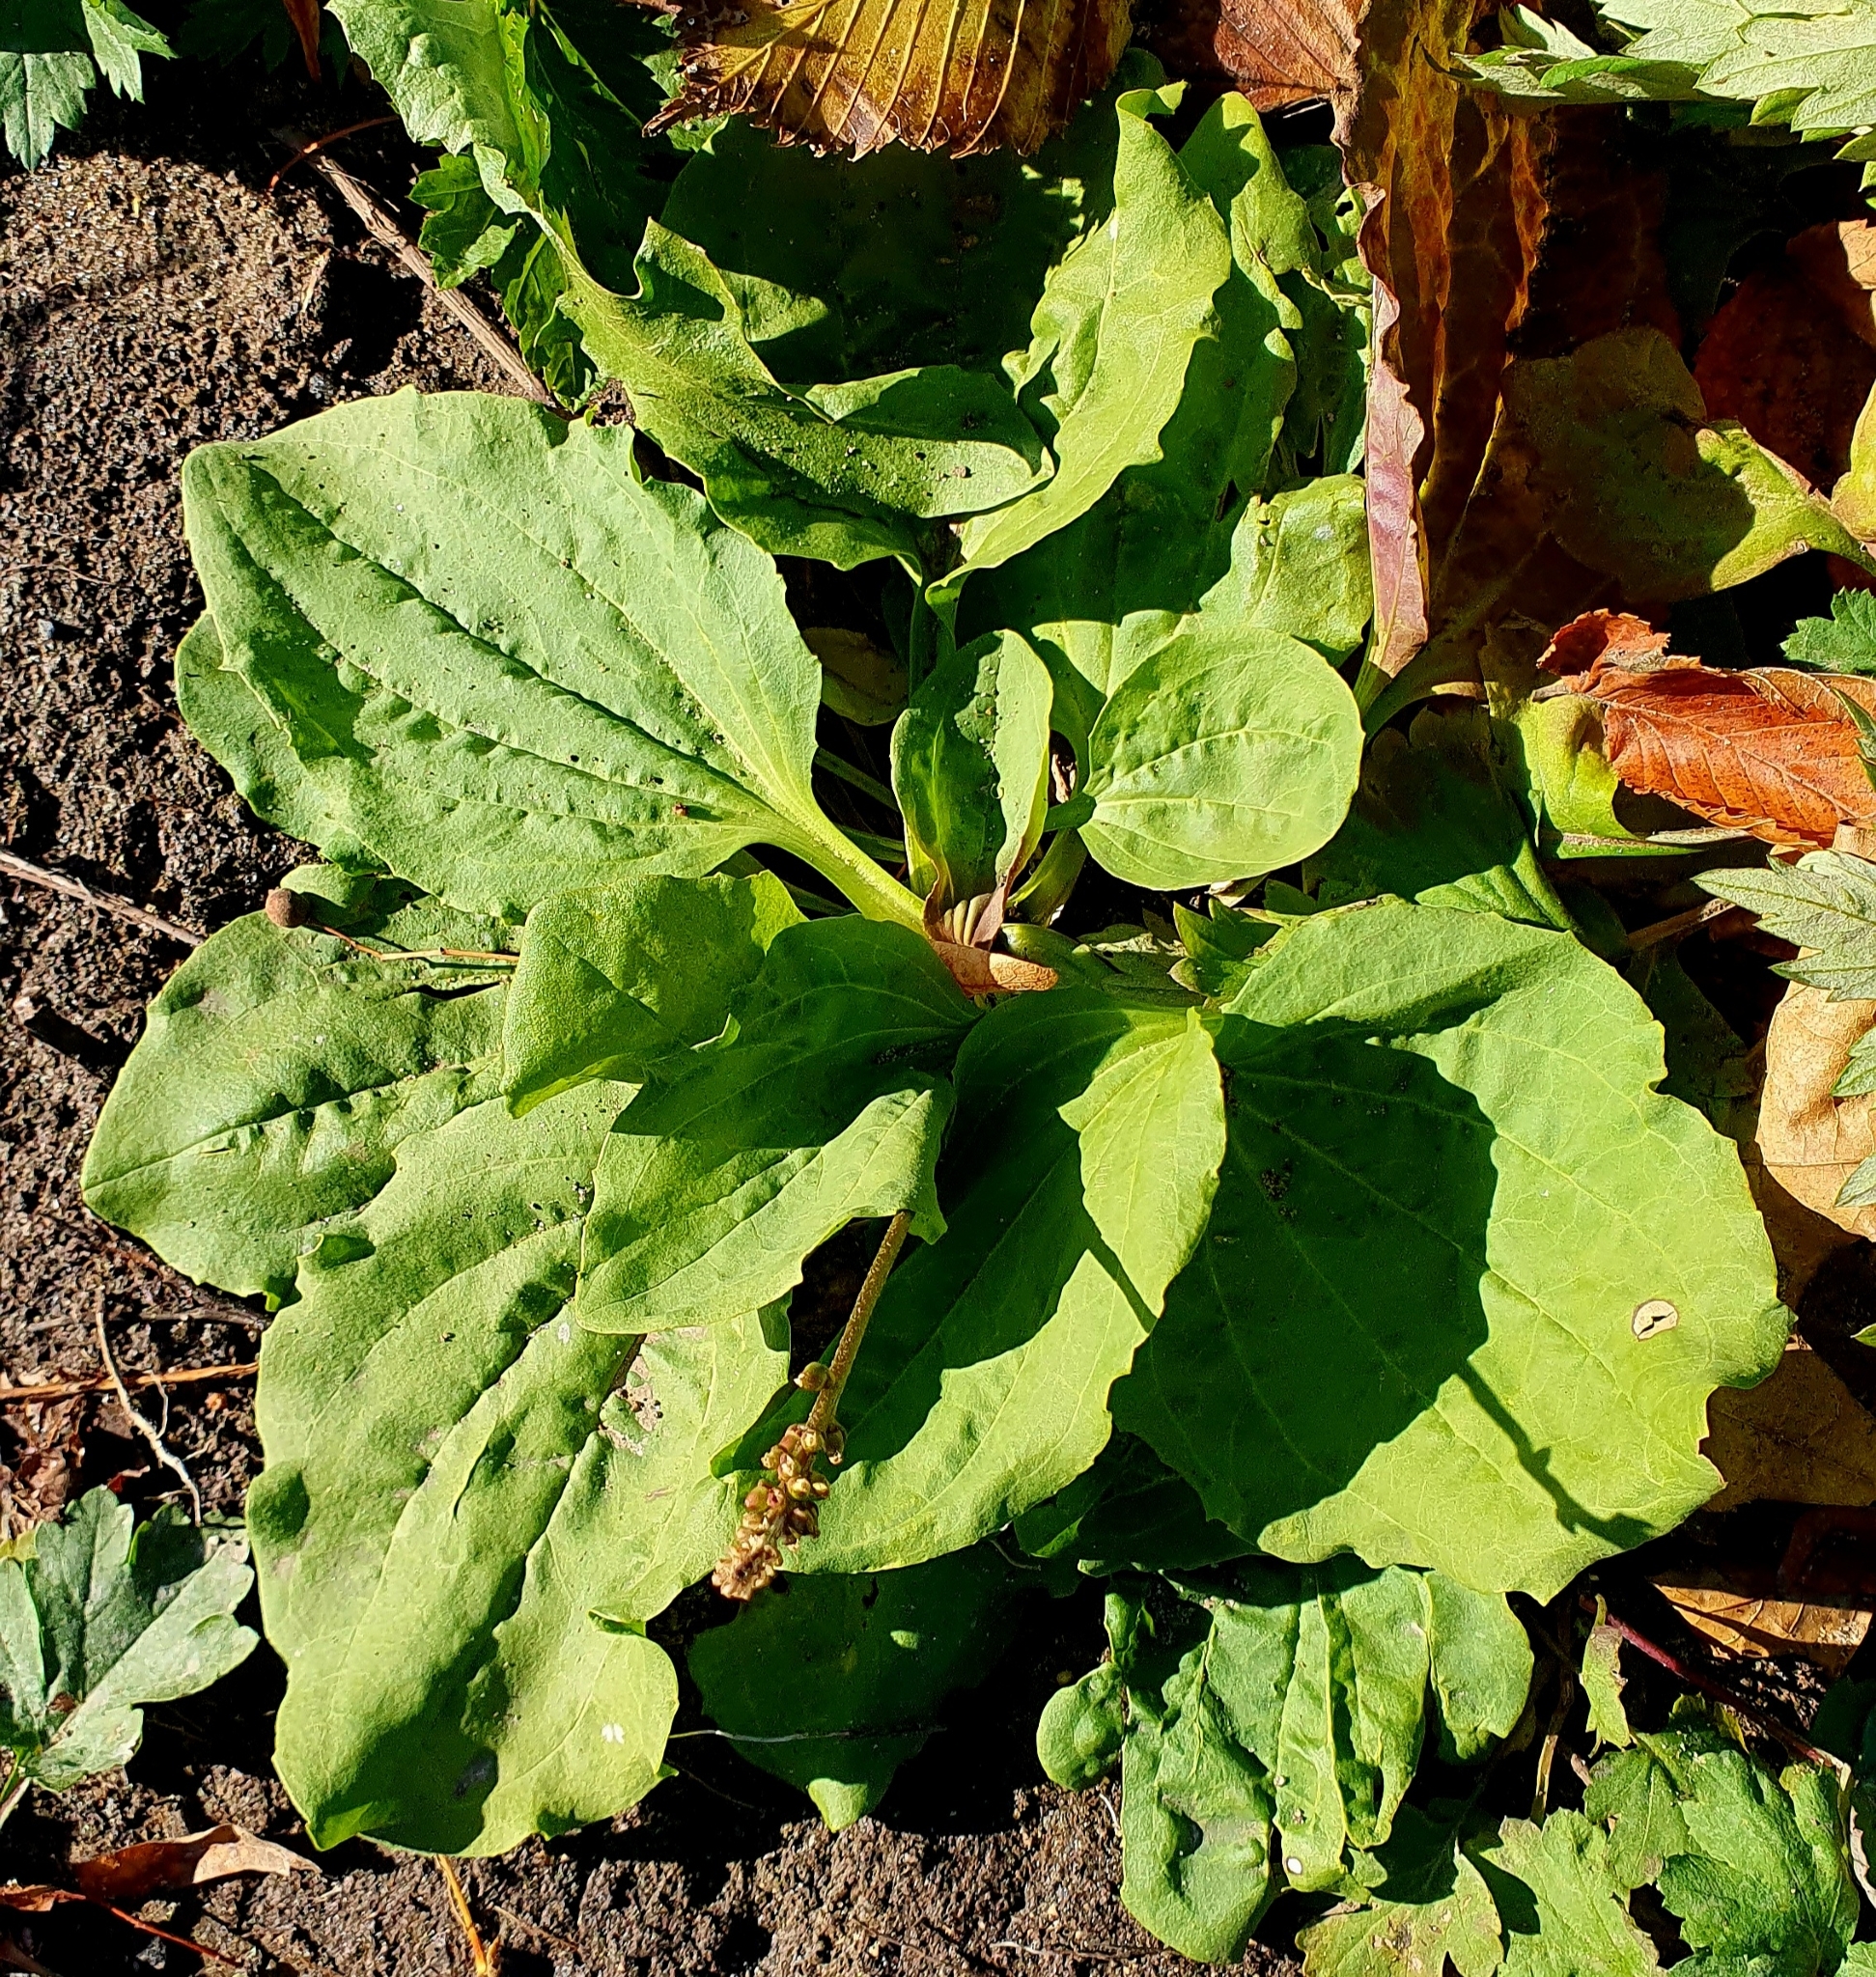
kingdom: Plantae
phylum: Tracheophyta
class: Magnoliopsida
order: Lamiales
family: Plantaginaceae
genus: Plantago
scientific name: Plantago major
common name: Common plantain
